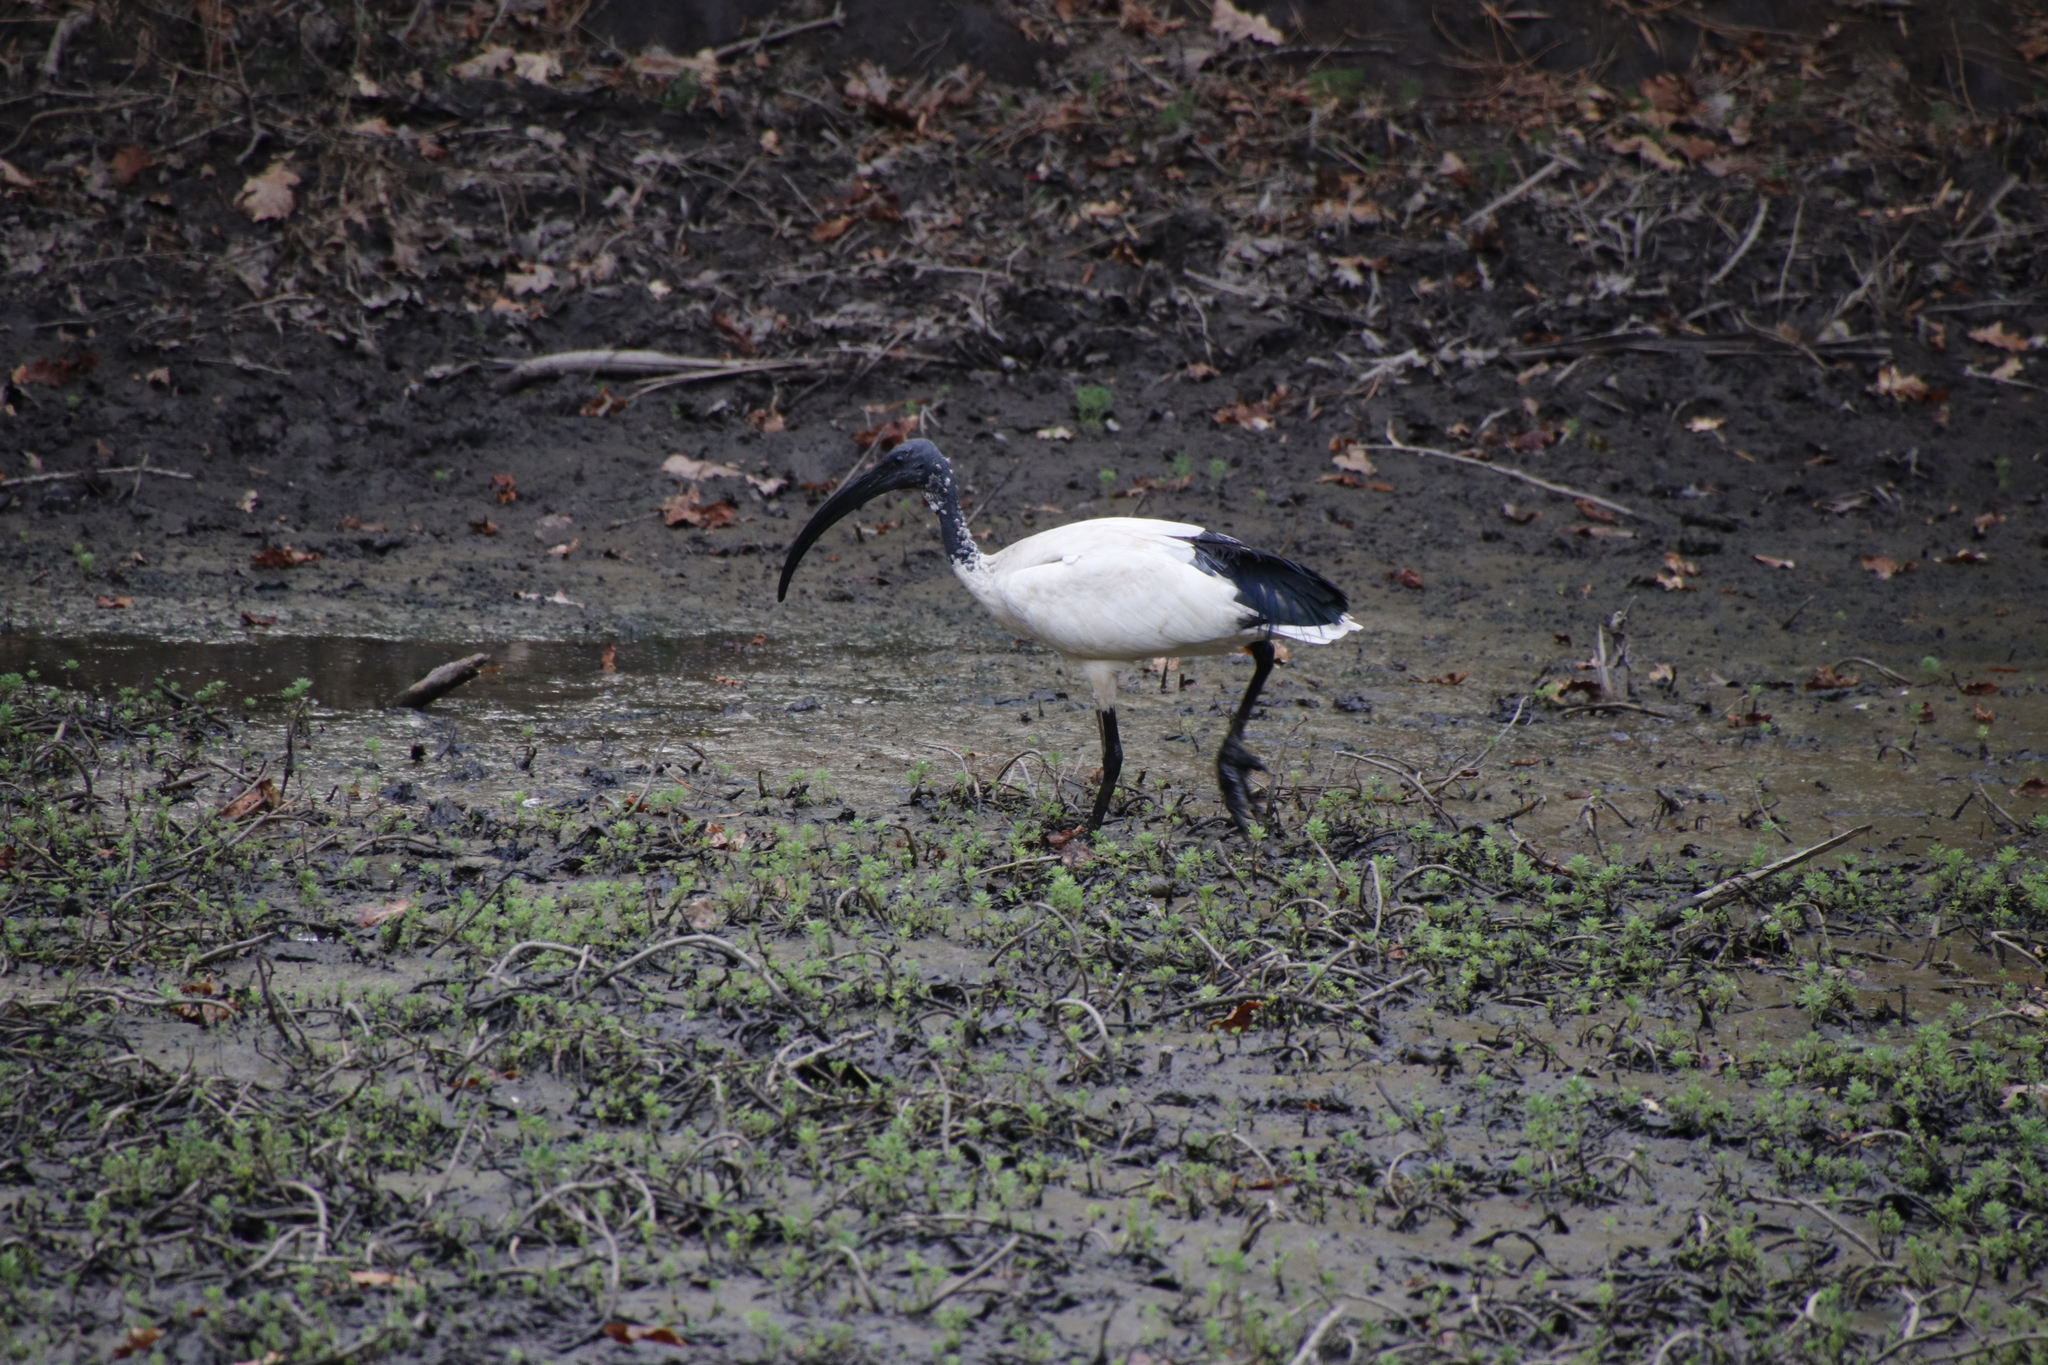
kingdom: Animalia
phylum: Chordata
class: Aves
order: Pelecaniformes
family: Threskiornithidae
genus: Threskiornis
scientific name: Threskiornis aethiopicus
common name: Sacred ibis
